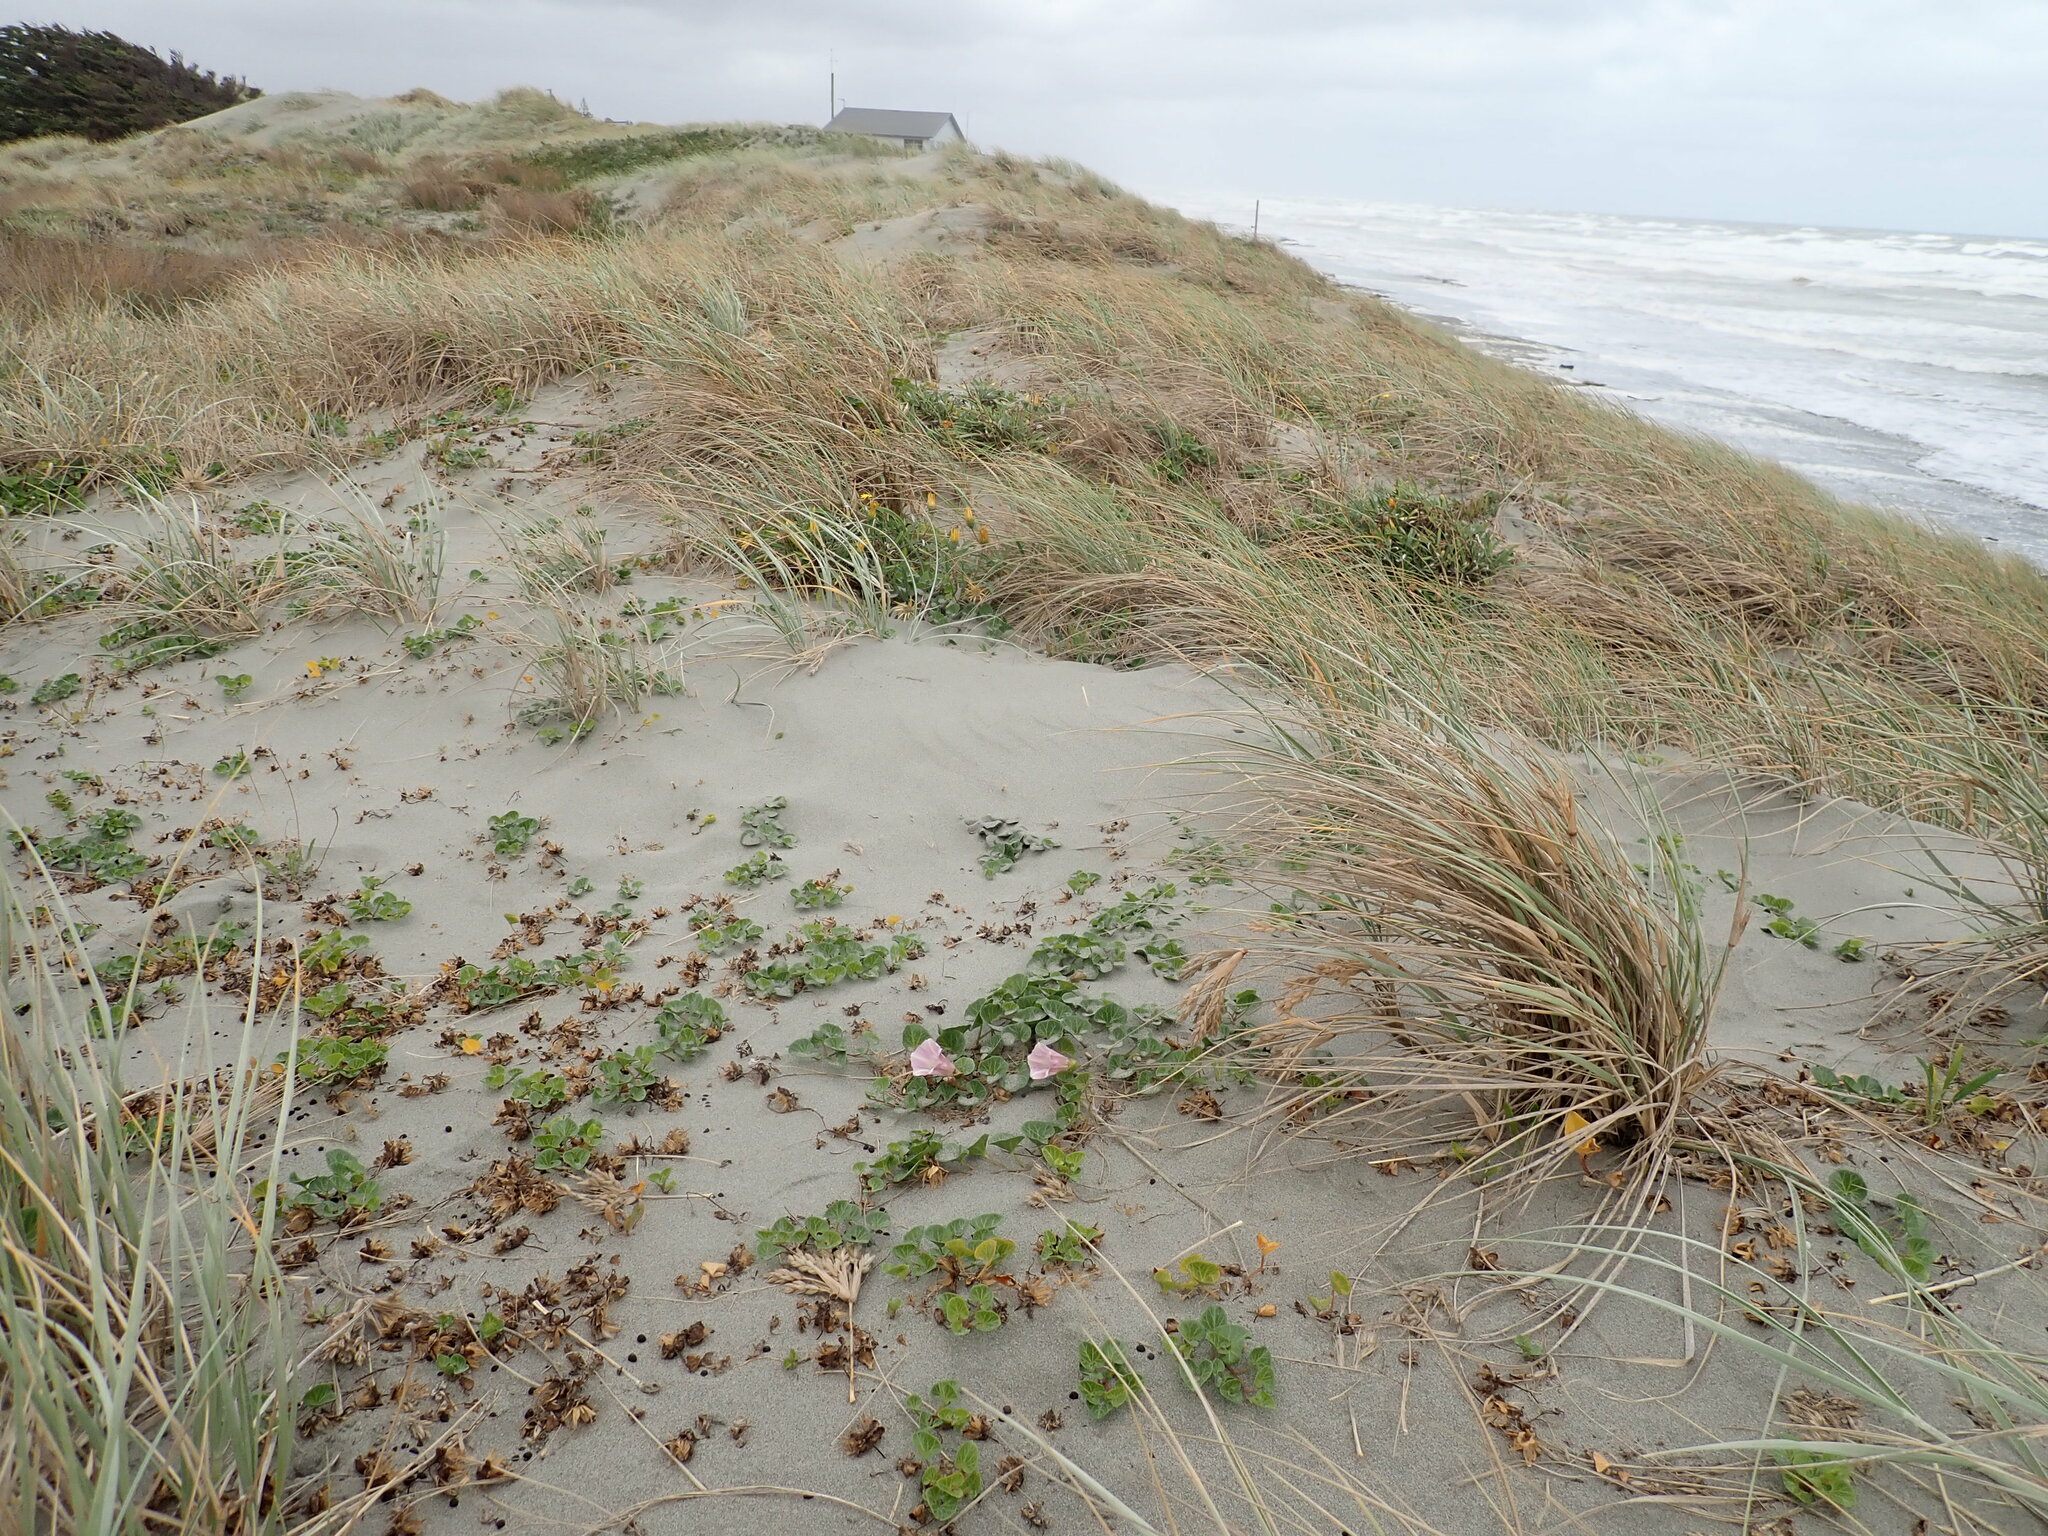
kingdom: Plantae
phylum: Tracheophyta
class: Magnoliopsida
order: Solanales
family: Convolvulaceae
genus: Calystegia
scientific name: Calystegia soldanella
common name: Sea bindweed
